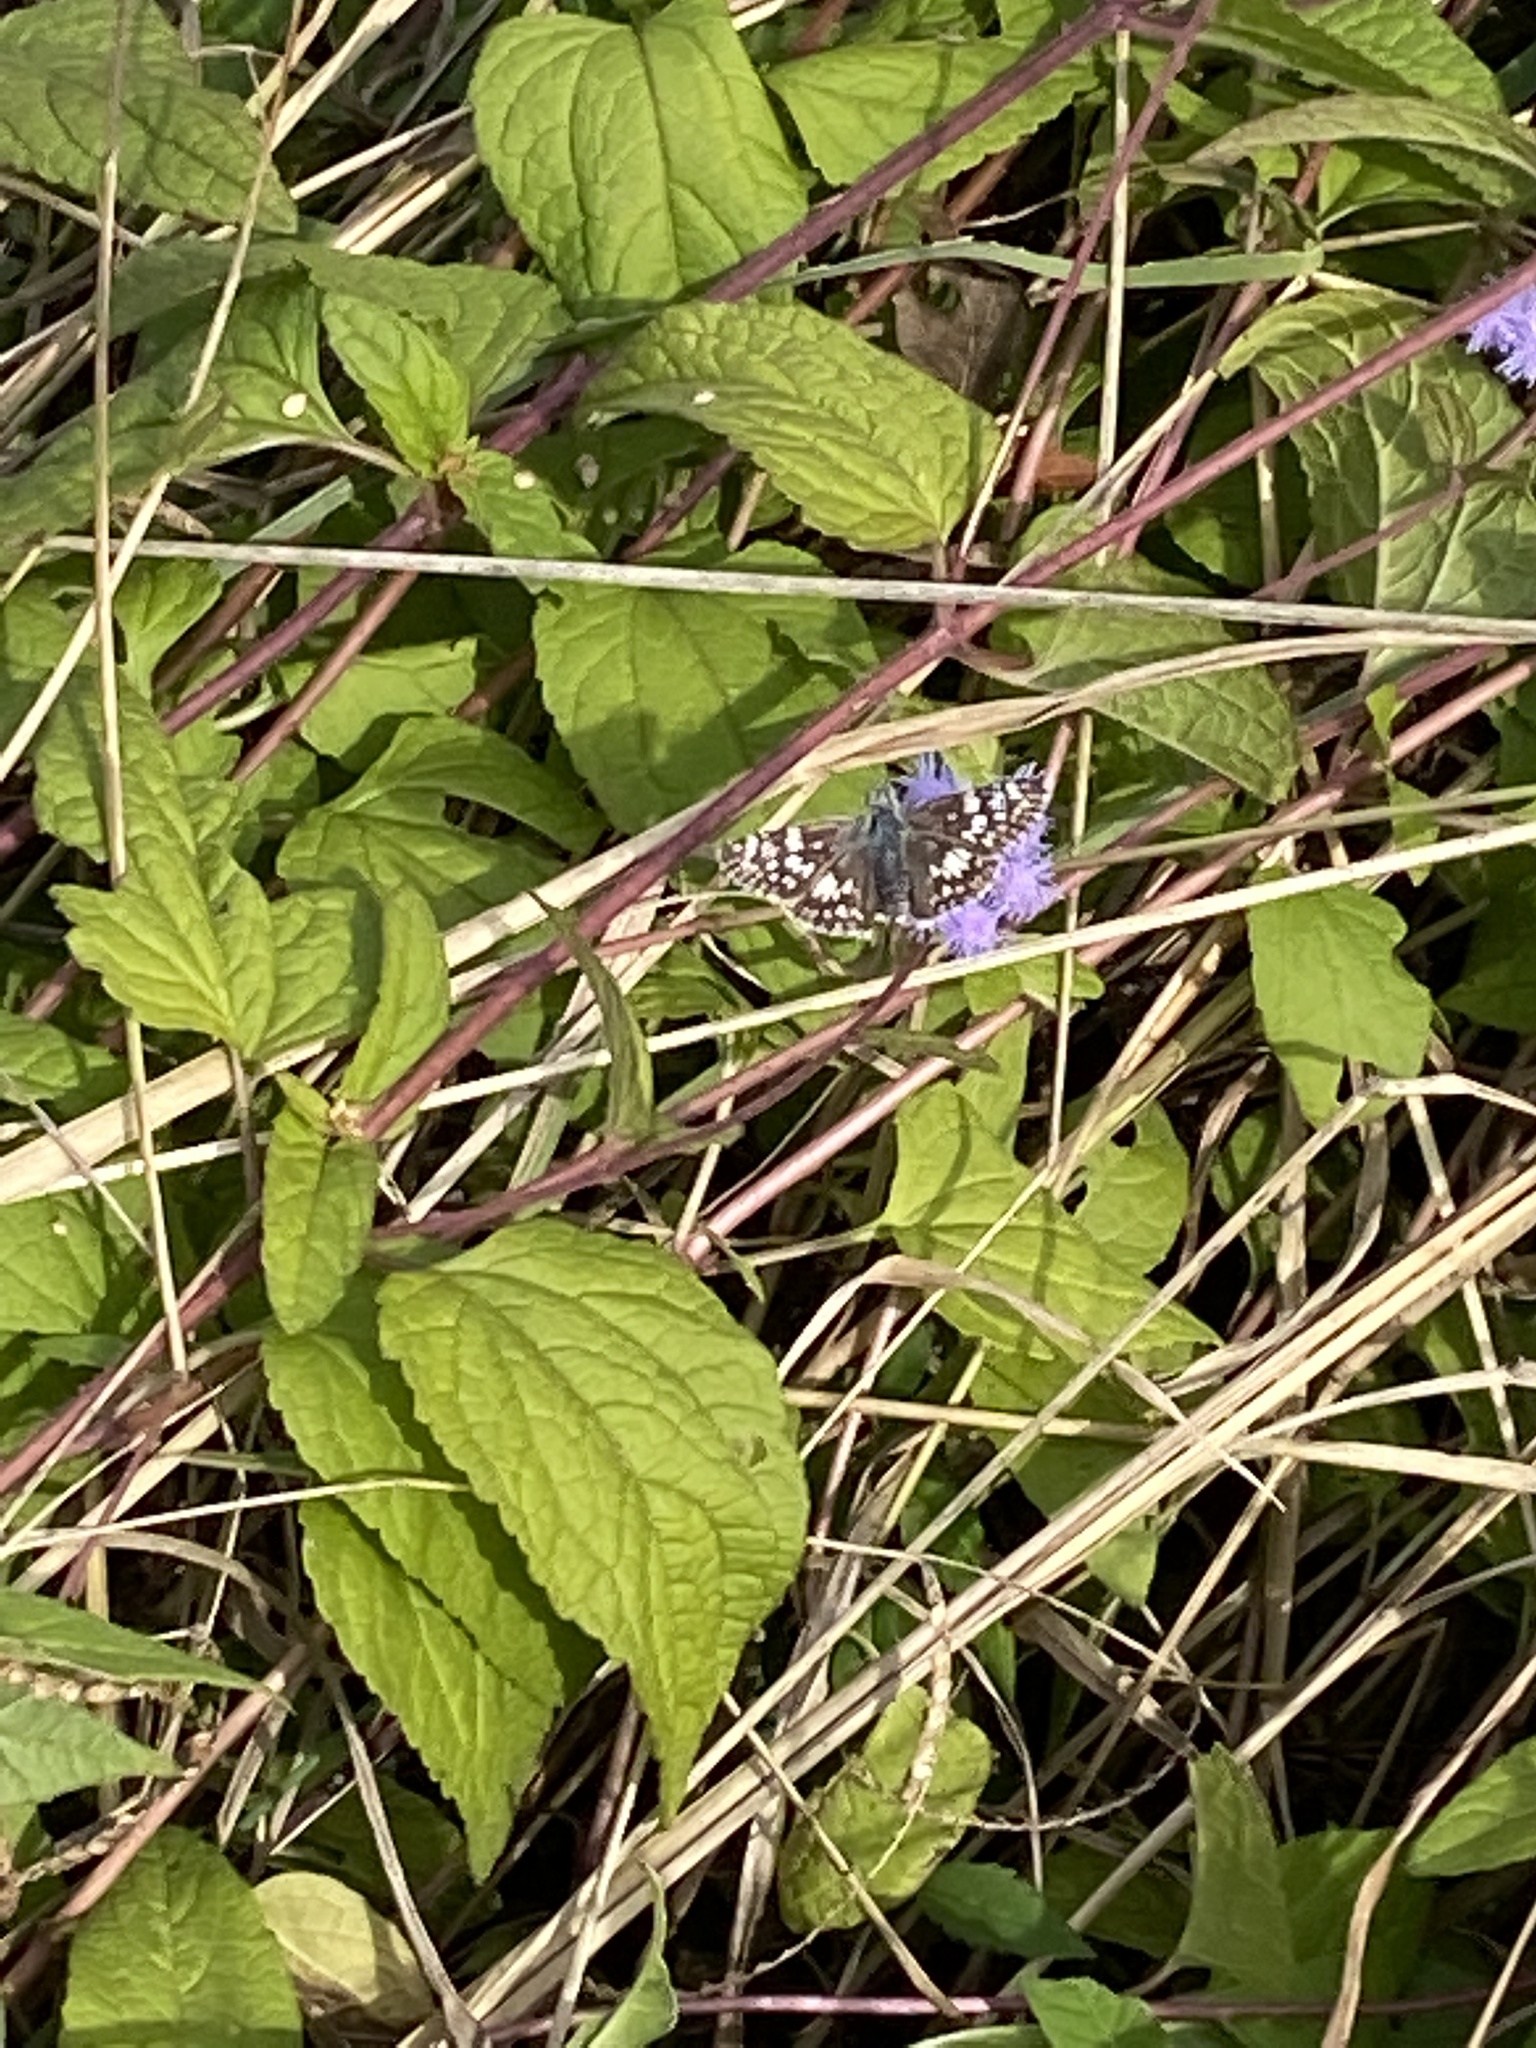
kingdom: Animalia
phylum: Arthropoda
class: Insecta
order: Lepidoptera
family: Hesperiidae
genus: Burnsius
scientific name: Burnsius communis
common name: Common checkered-skipper
